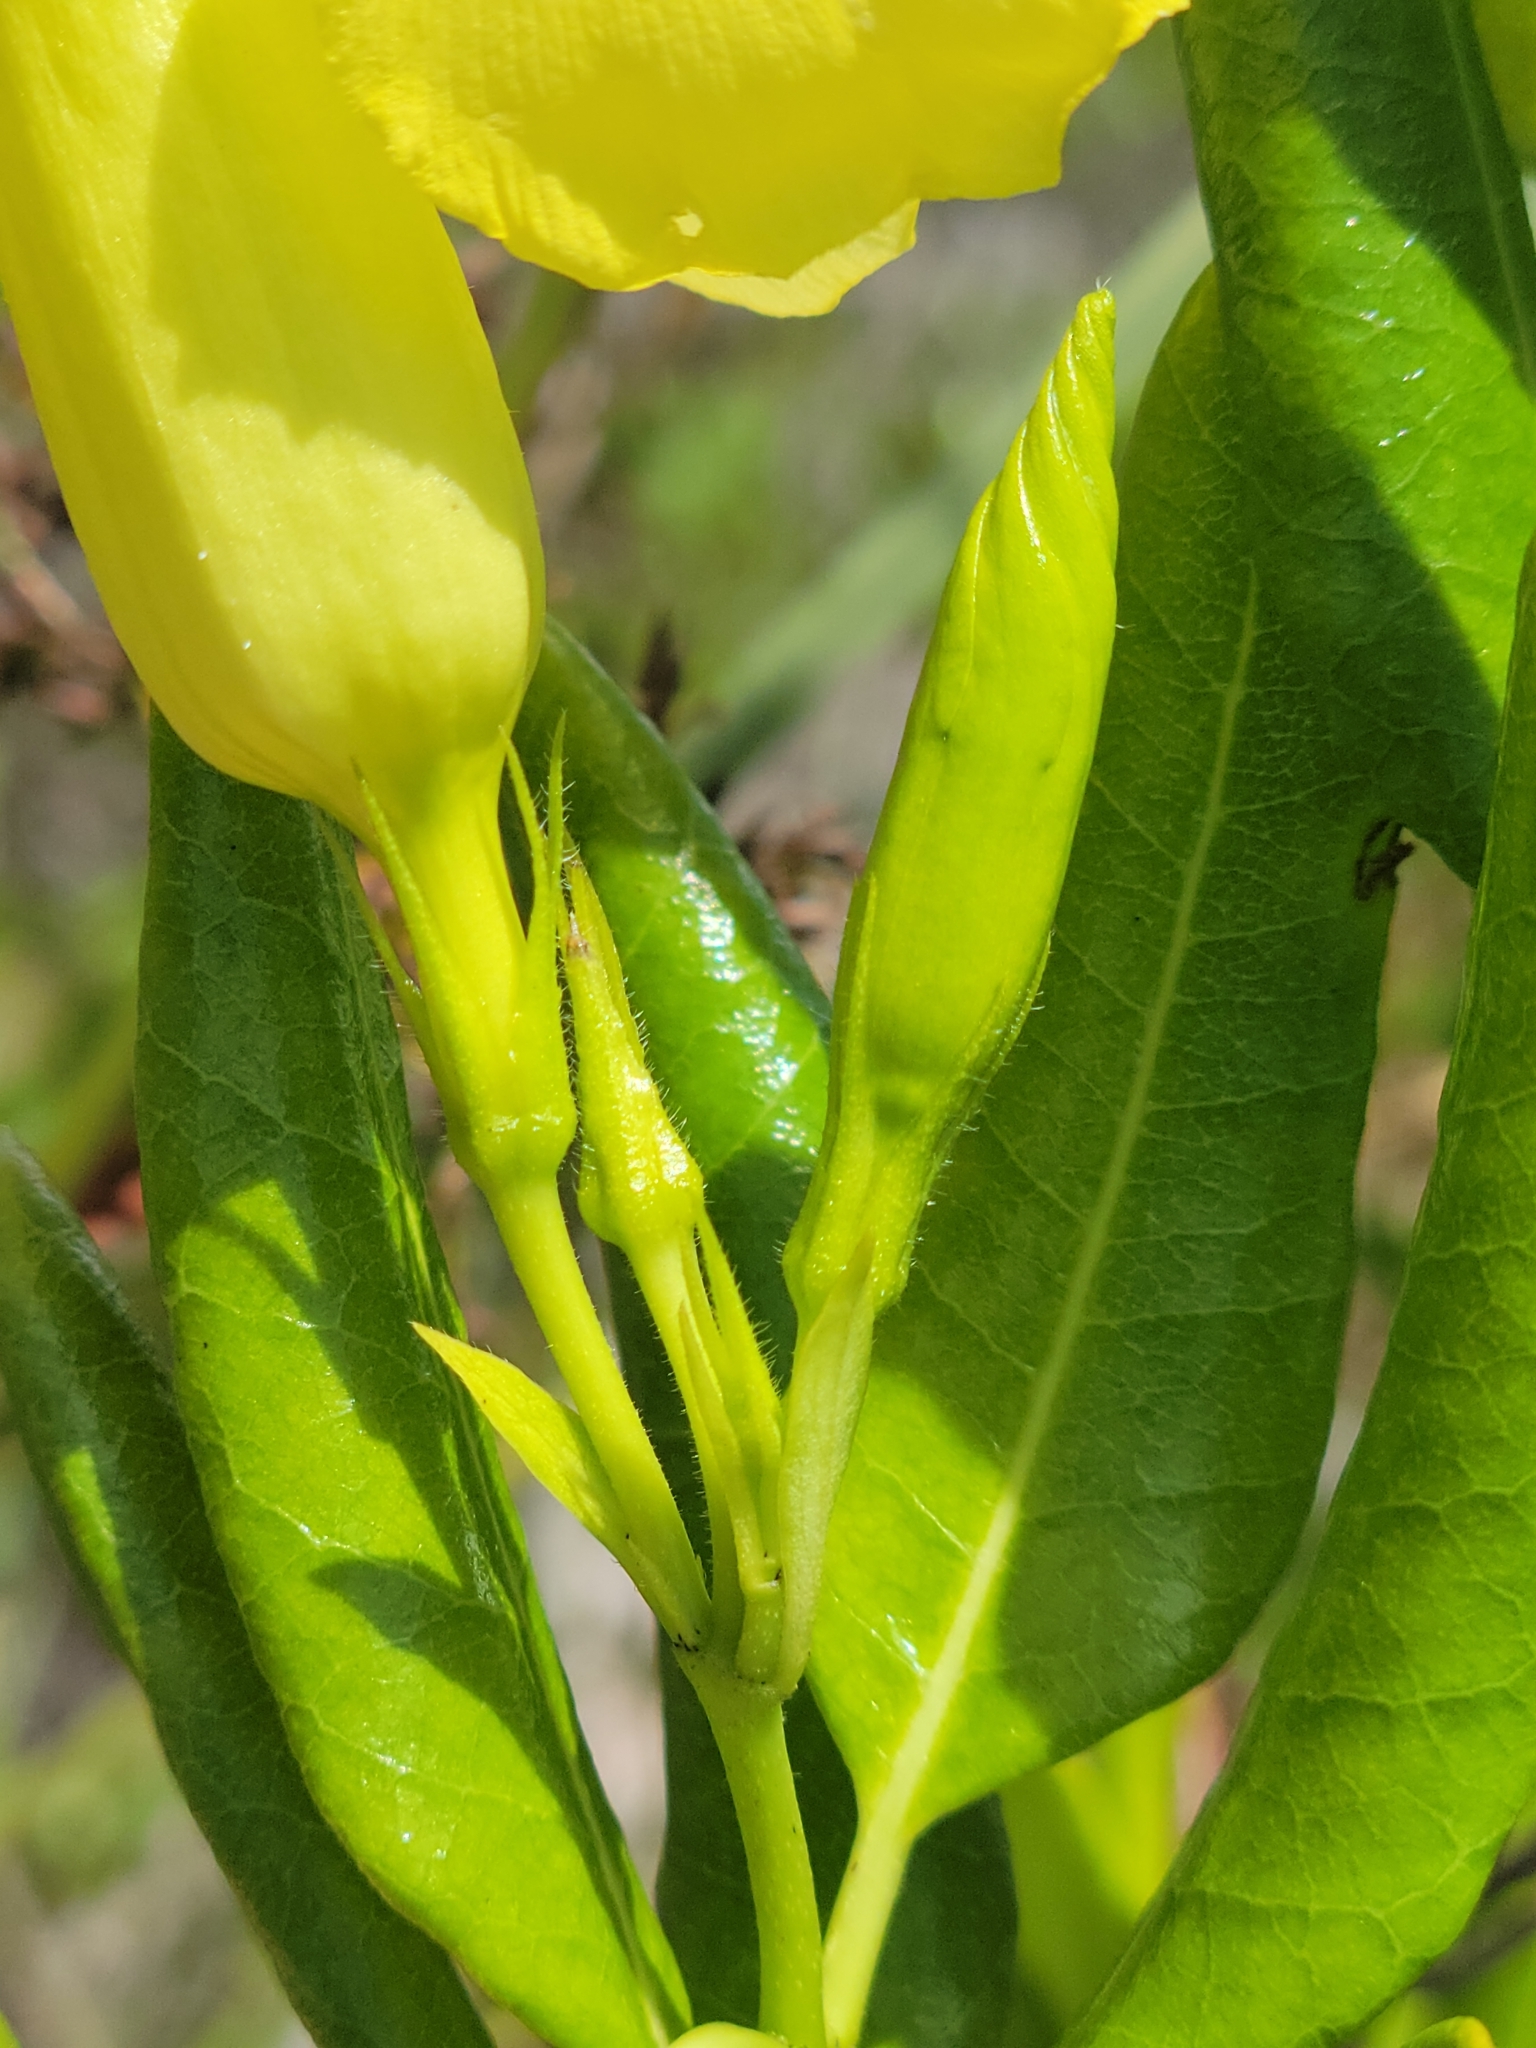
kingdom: Plantae
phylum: Tracheophyta
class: Magnoliopsida
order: Gentianales
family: Apocynaceae
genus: Pentalinon
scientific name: Pentalinon luteum
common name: Licebush
